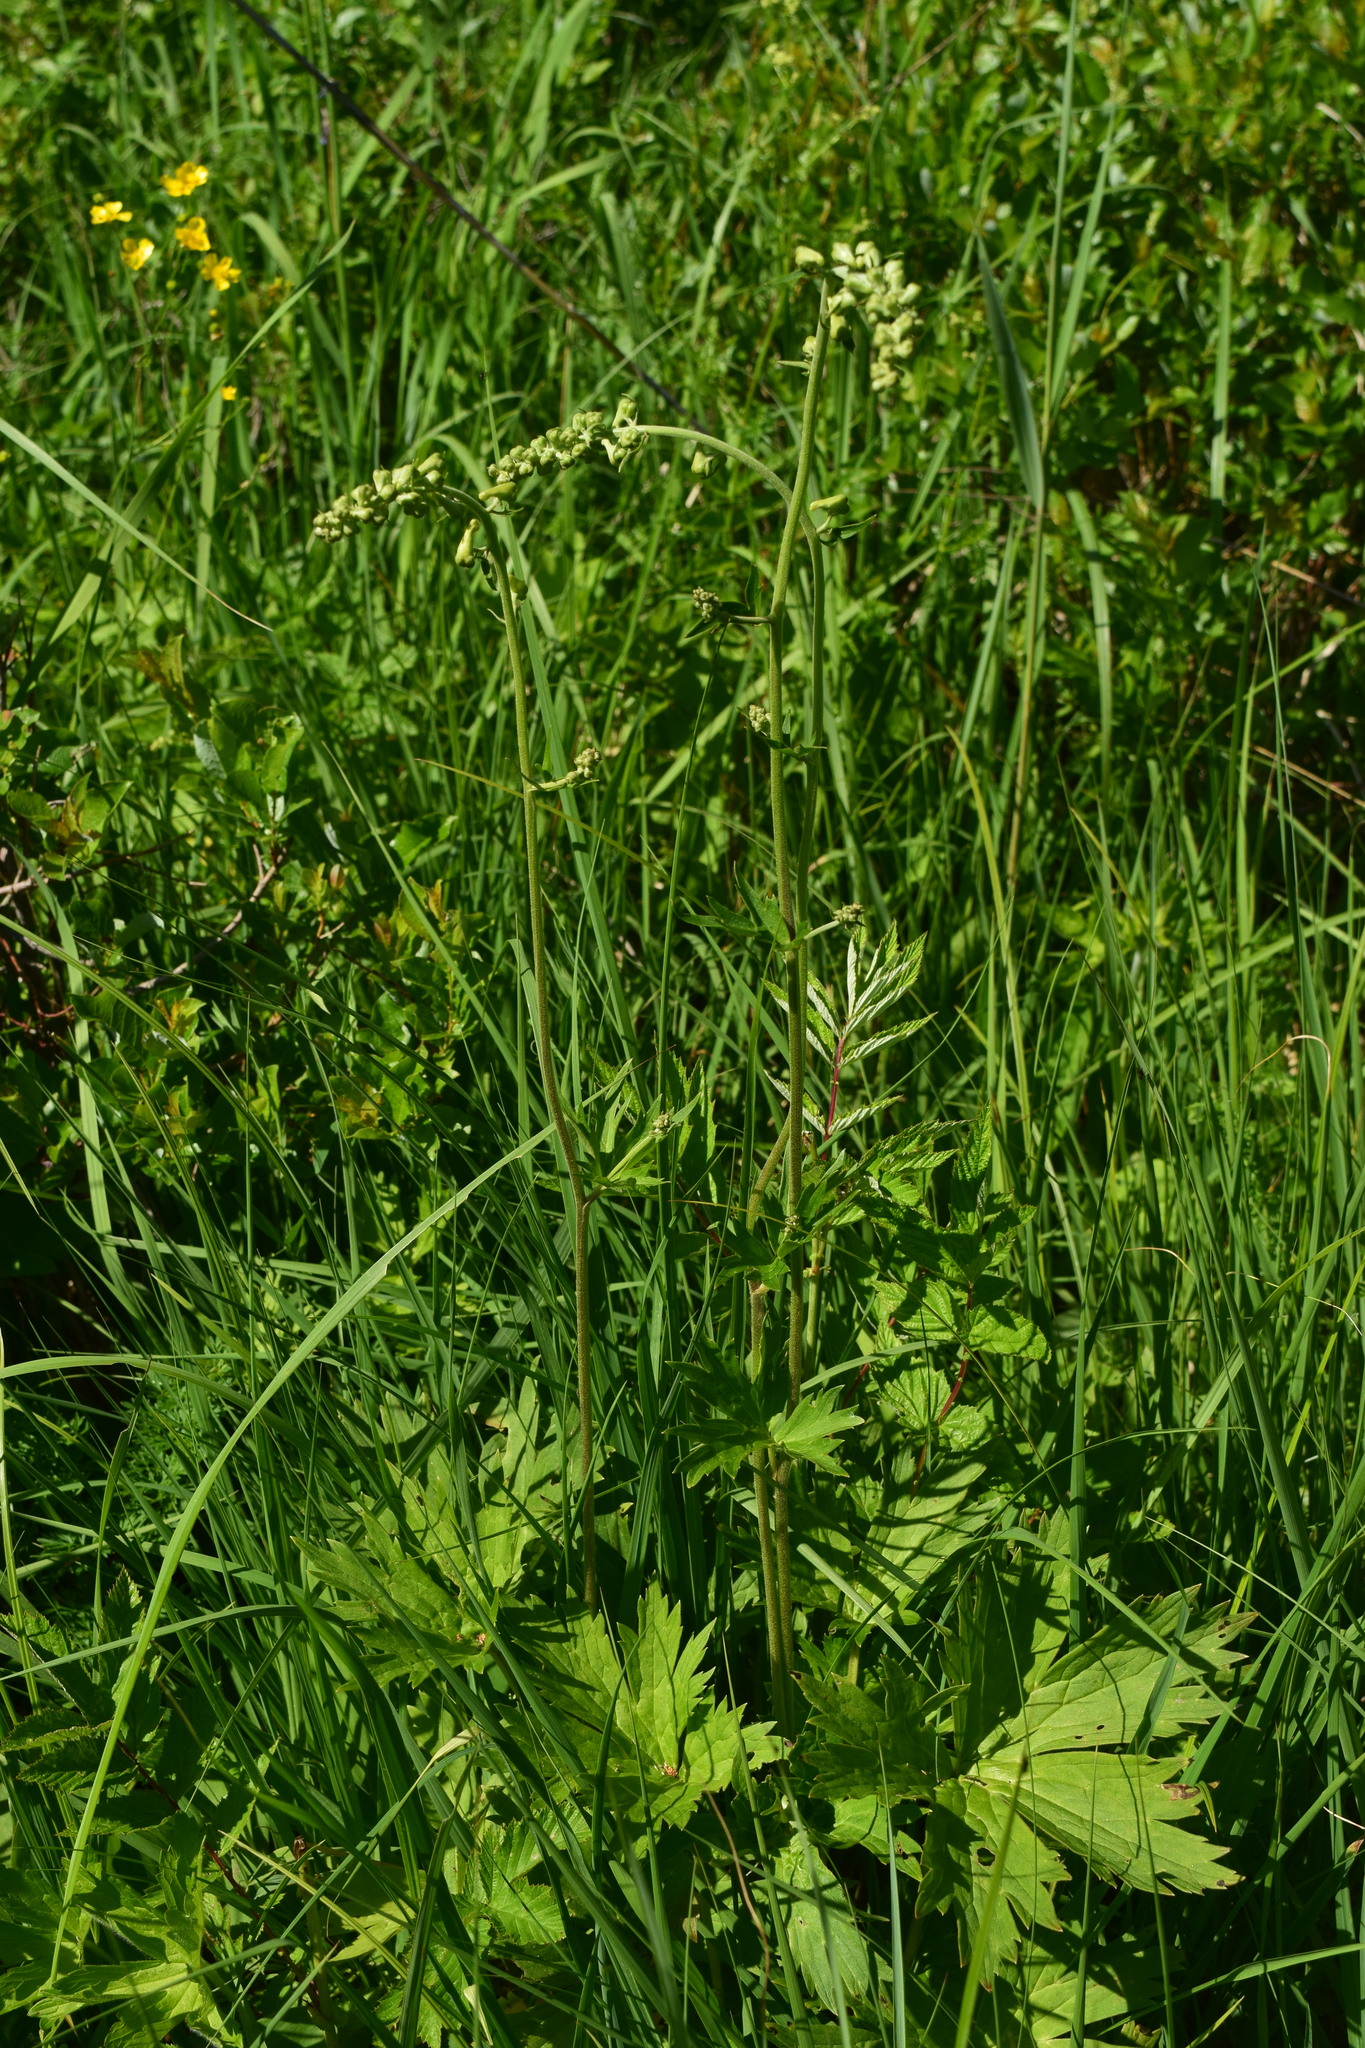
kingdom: Plantae
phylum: Tracheophyta
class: Magnoliopsida
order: Ranunculales
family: Ranunculaceae
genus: Aconitum
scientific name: Aconitum lasiostomum
